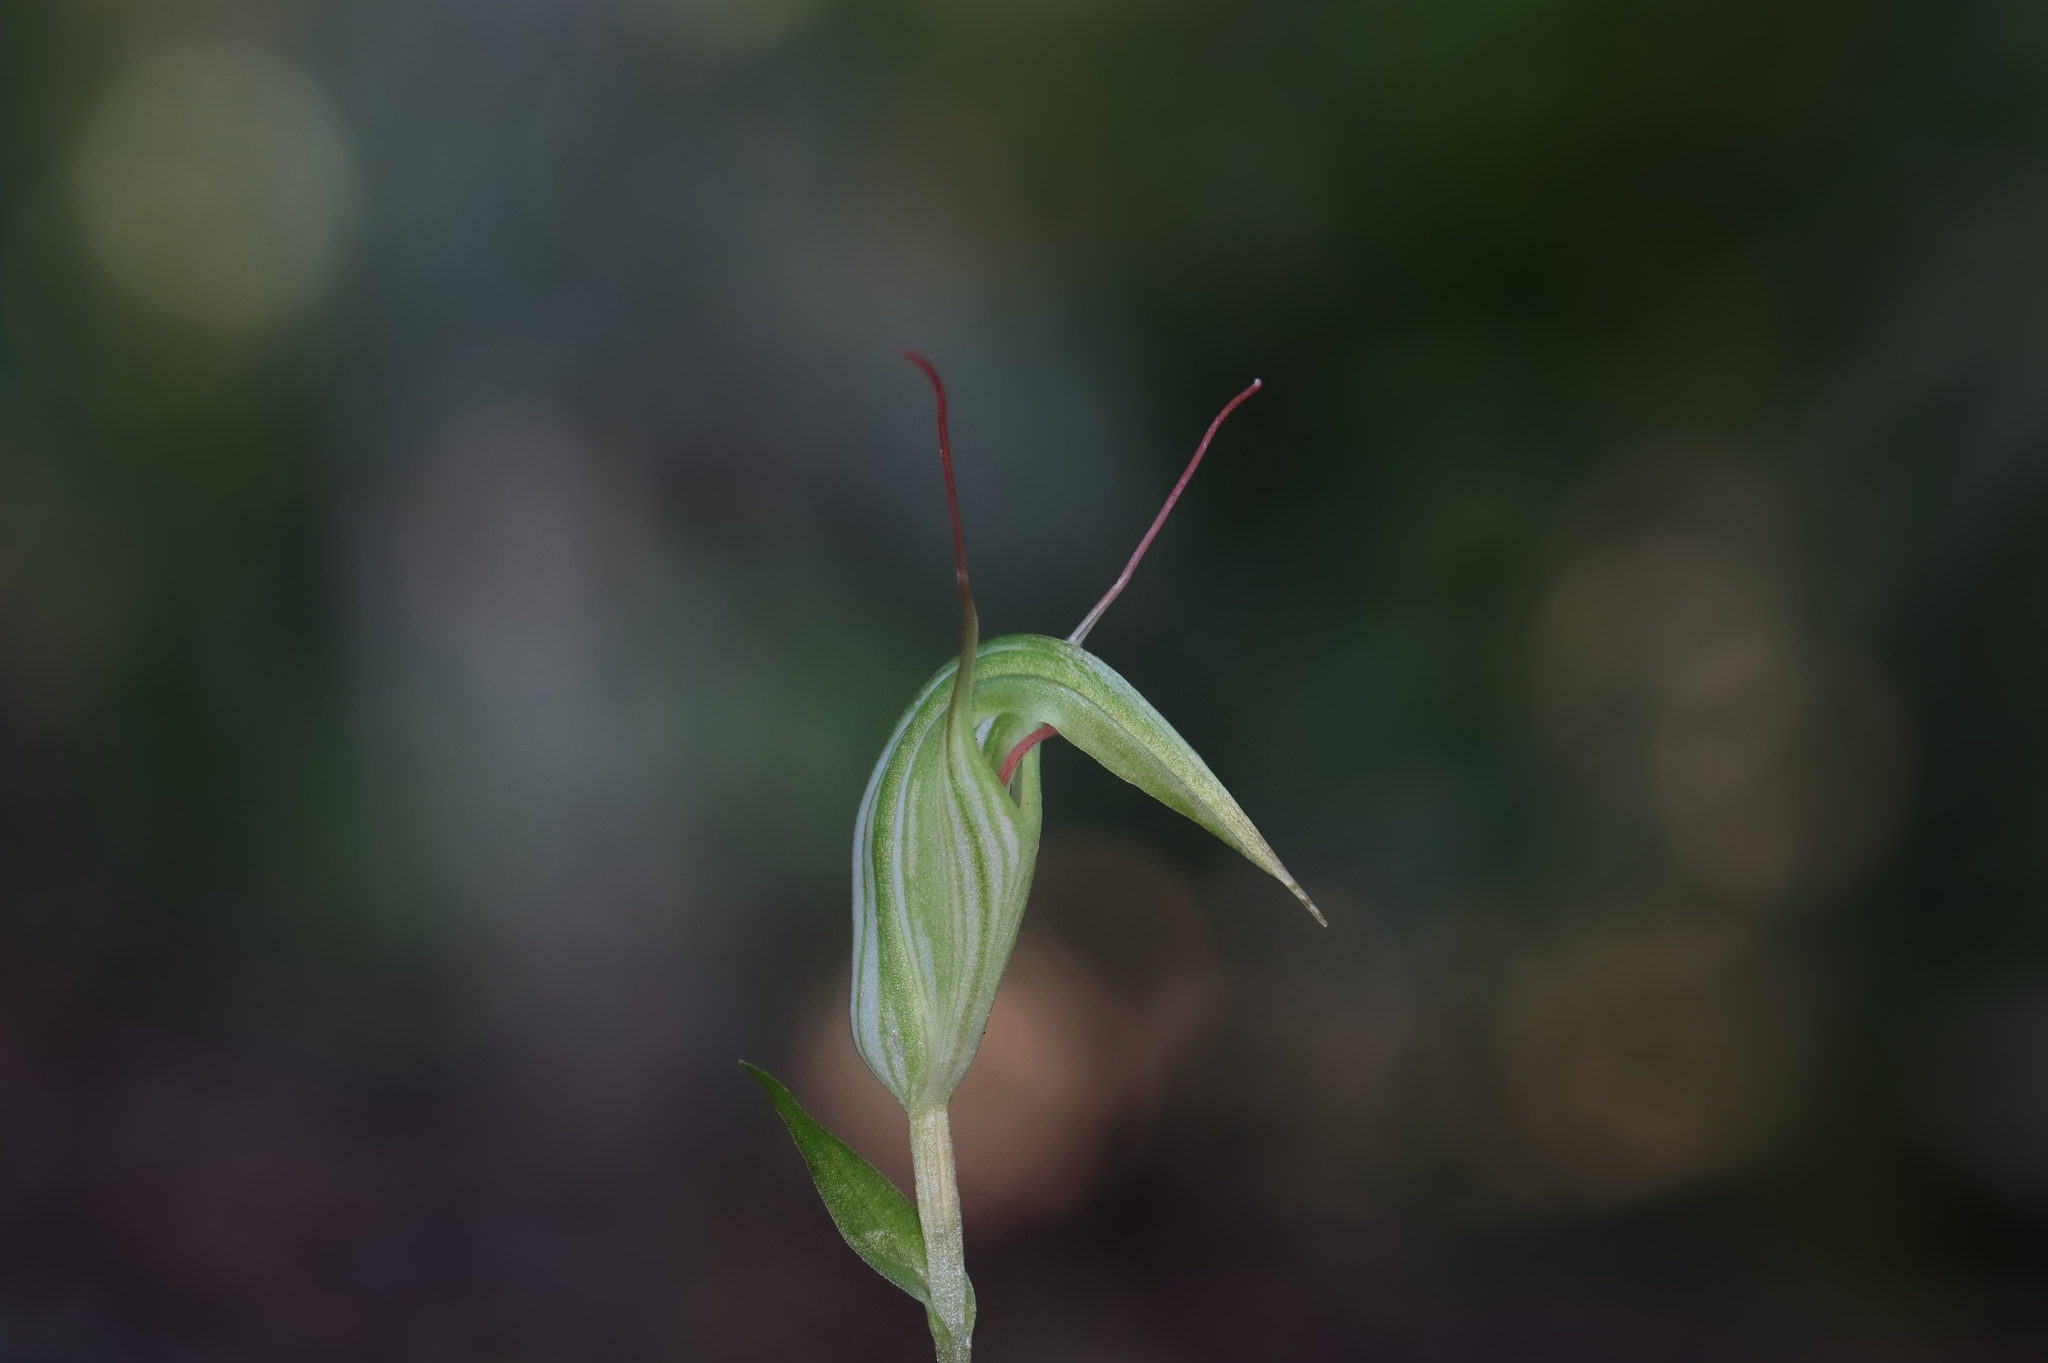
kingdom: Plantae
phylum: Tracheophyta
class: Liliopsida
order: Asparagales
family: Orchidaceae
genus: Pterostylis
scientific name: Pterostylis alobula
